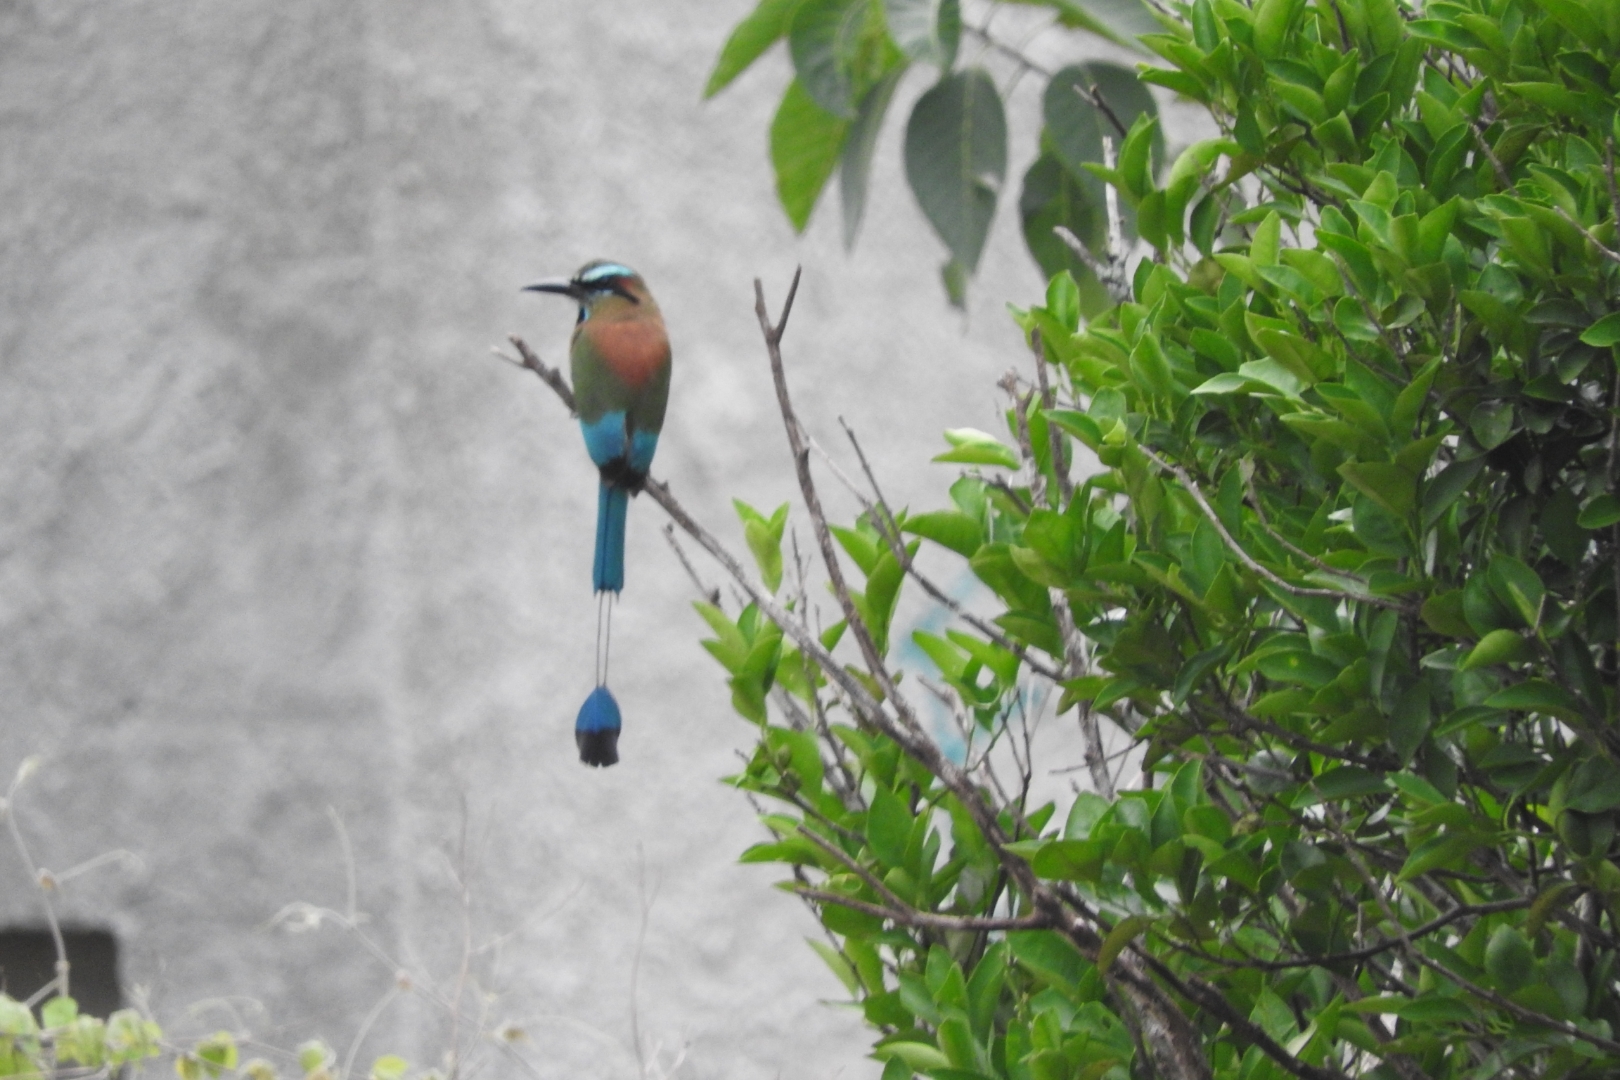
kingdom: Animalia
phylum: Chordata
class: Aves
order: Coraciiformes
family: Momotidae
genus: Eumomota
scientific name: Eumomota superciliosa
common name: Turquoise-browed motmot
